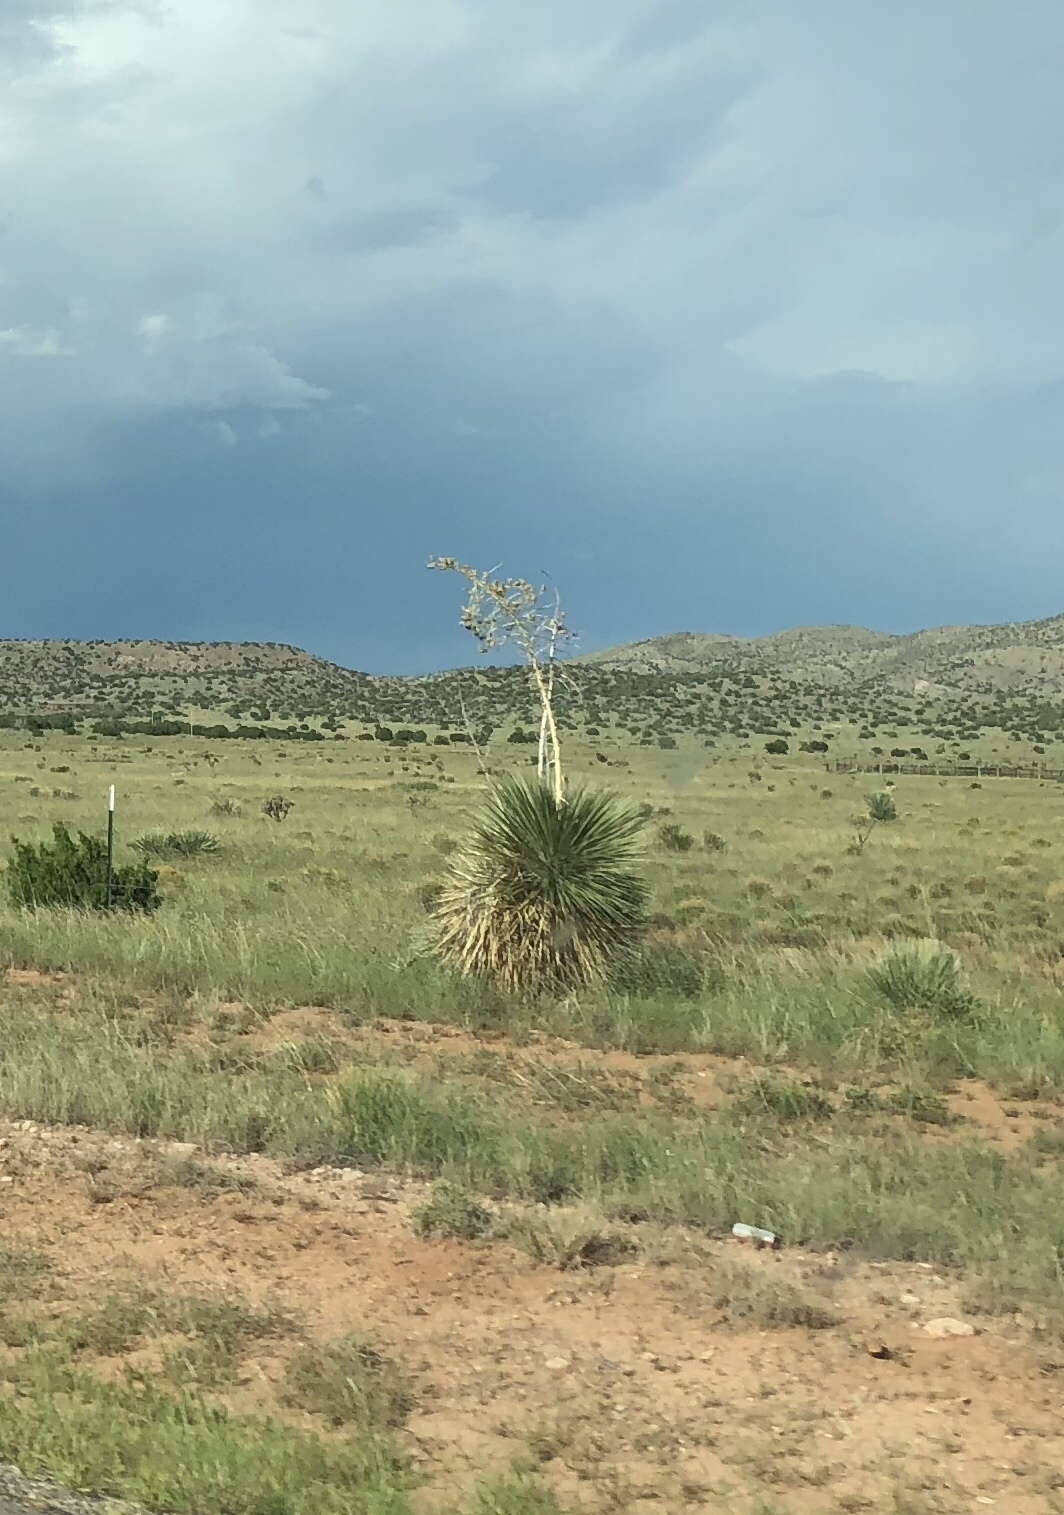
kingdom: Plantae
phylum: Tracheophyta
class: Liliopsida
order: Asparagales
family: Asparagaceae
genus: Yucca
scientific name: Yucca elata
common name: Palmella
